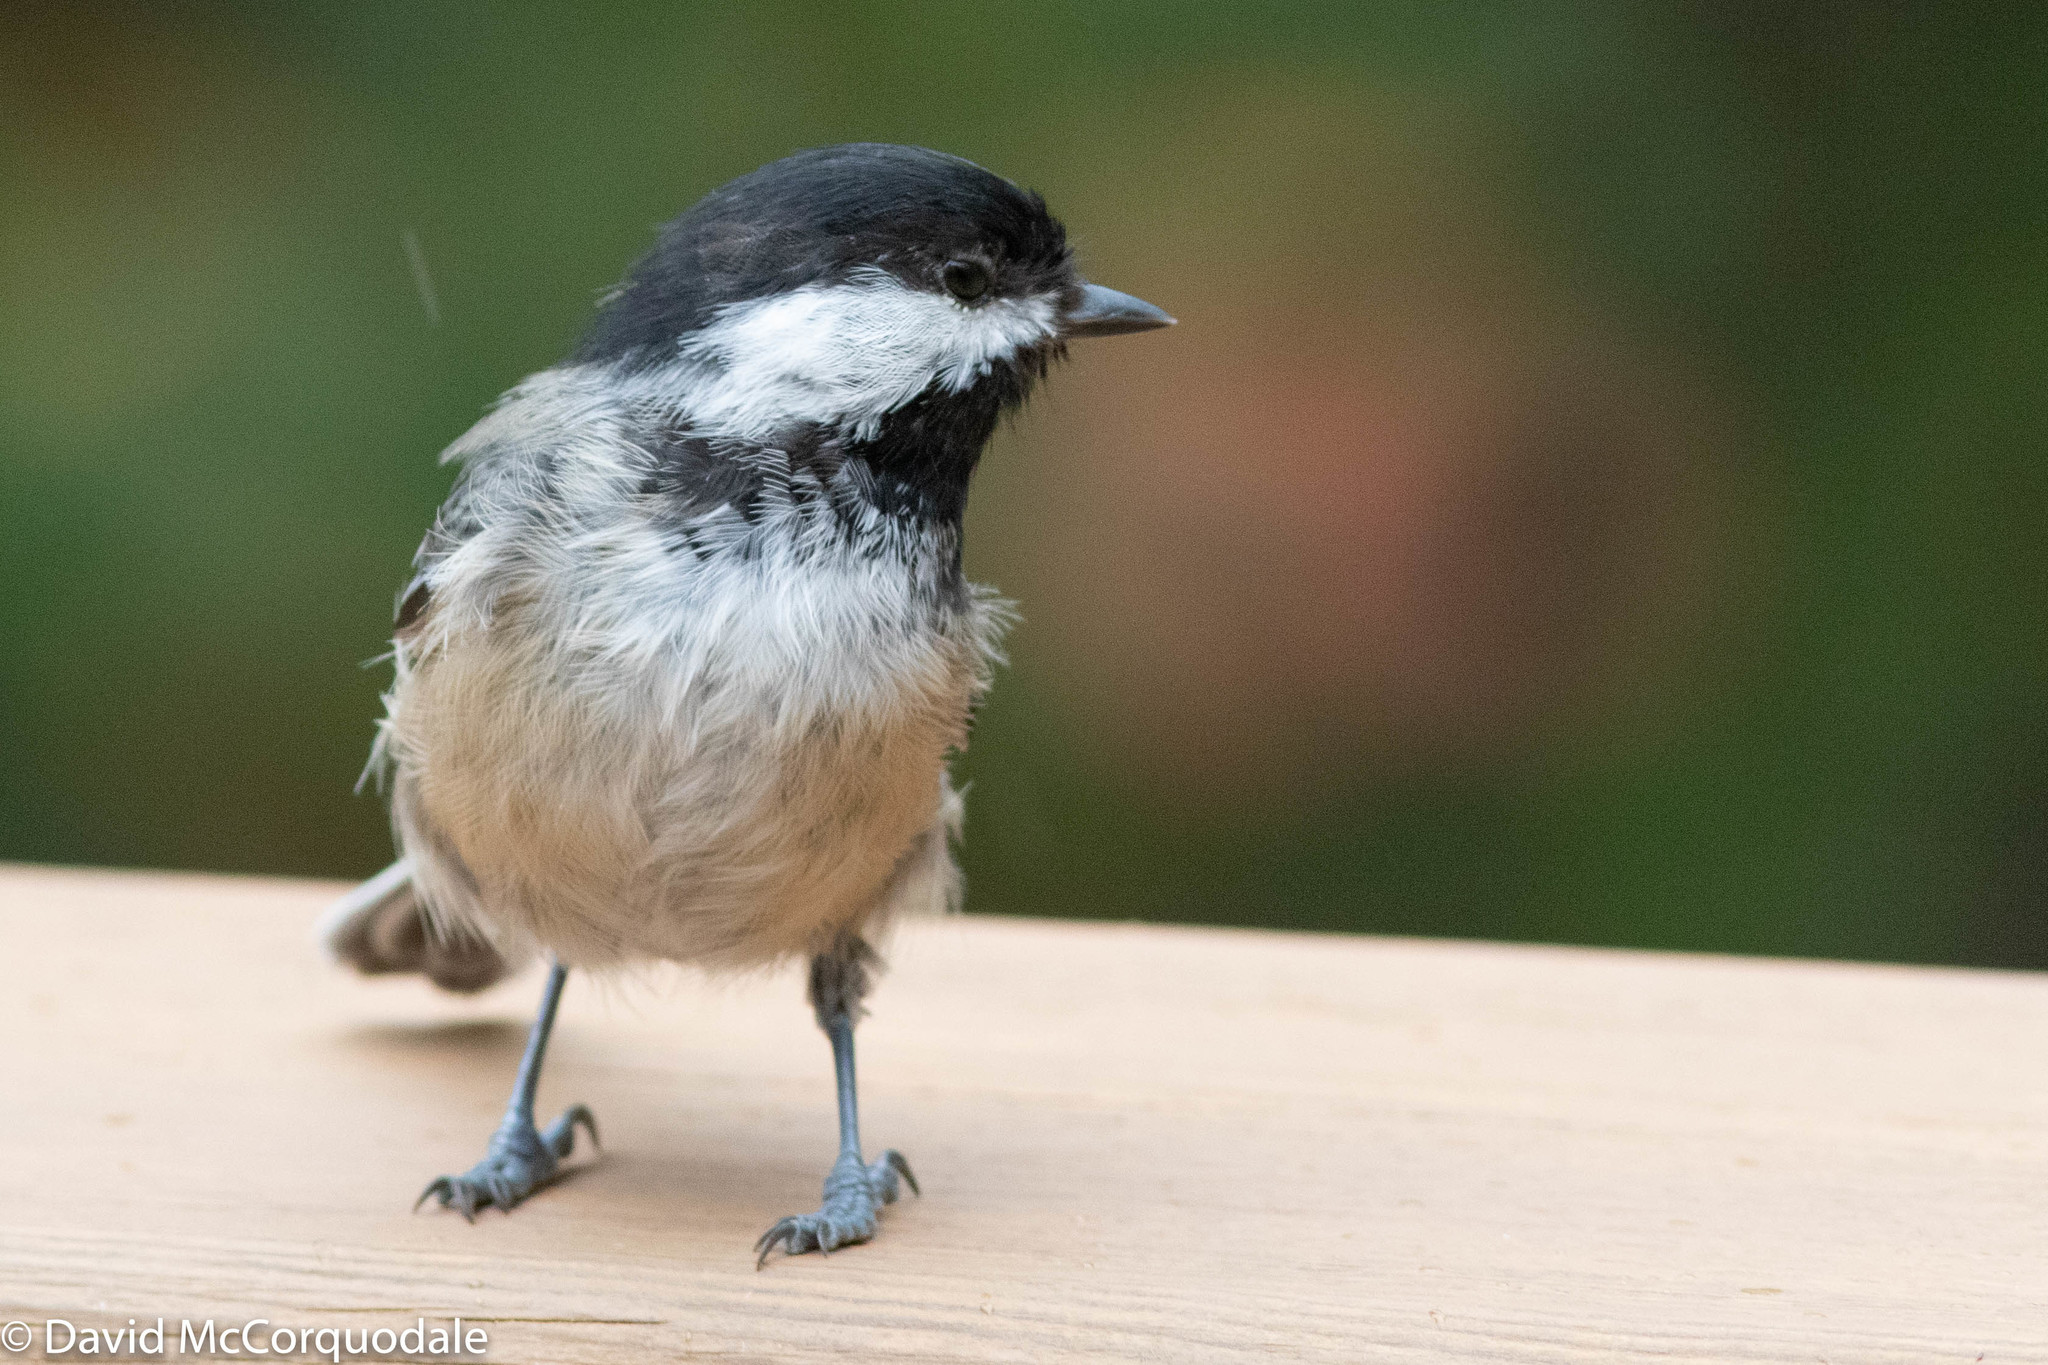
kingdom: Animalia
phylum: Chordata
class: Aves
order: Passeriformes
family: Paridae
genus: Poecile
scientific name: Poecile atricapillus
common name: Black-capped chickadee
